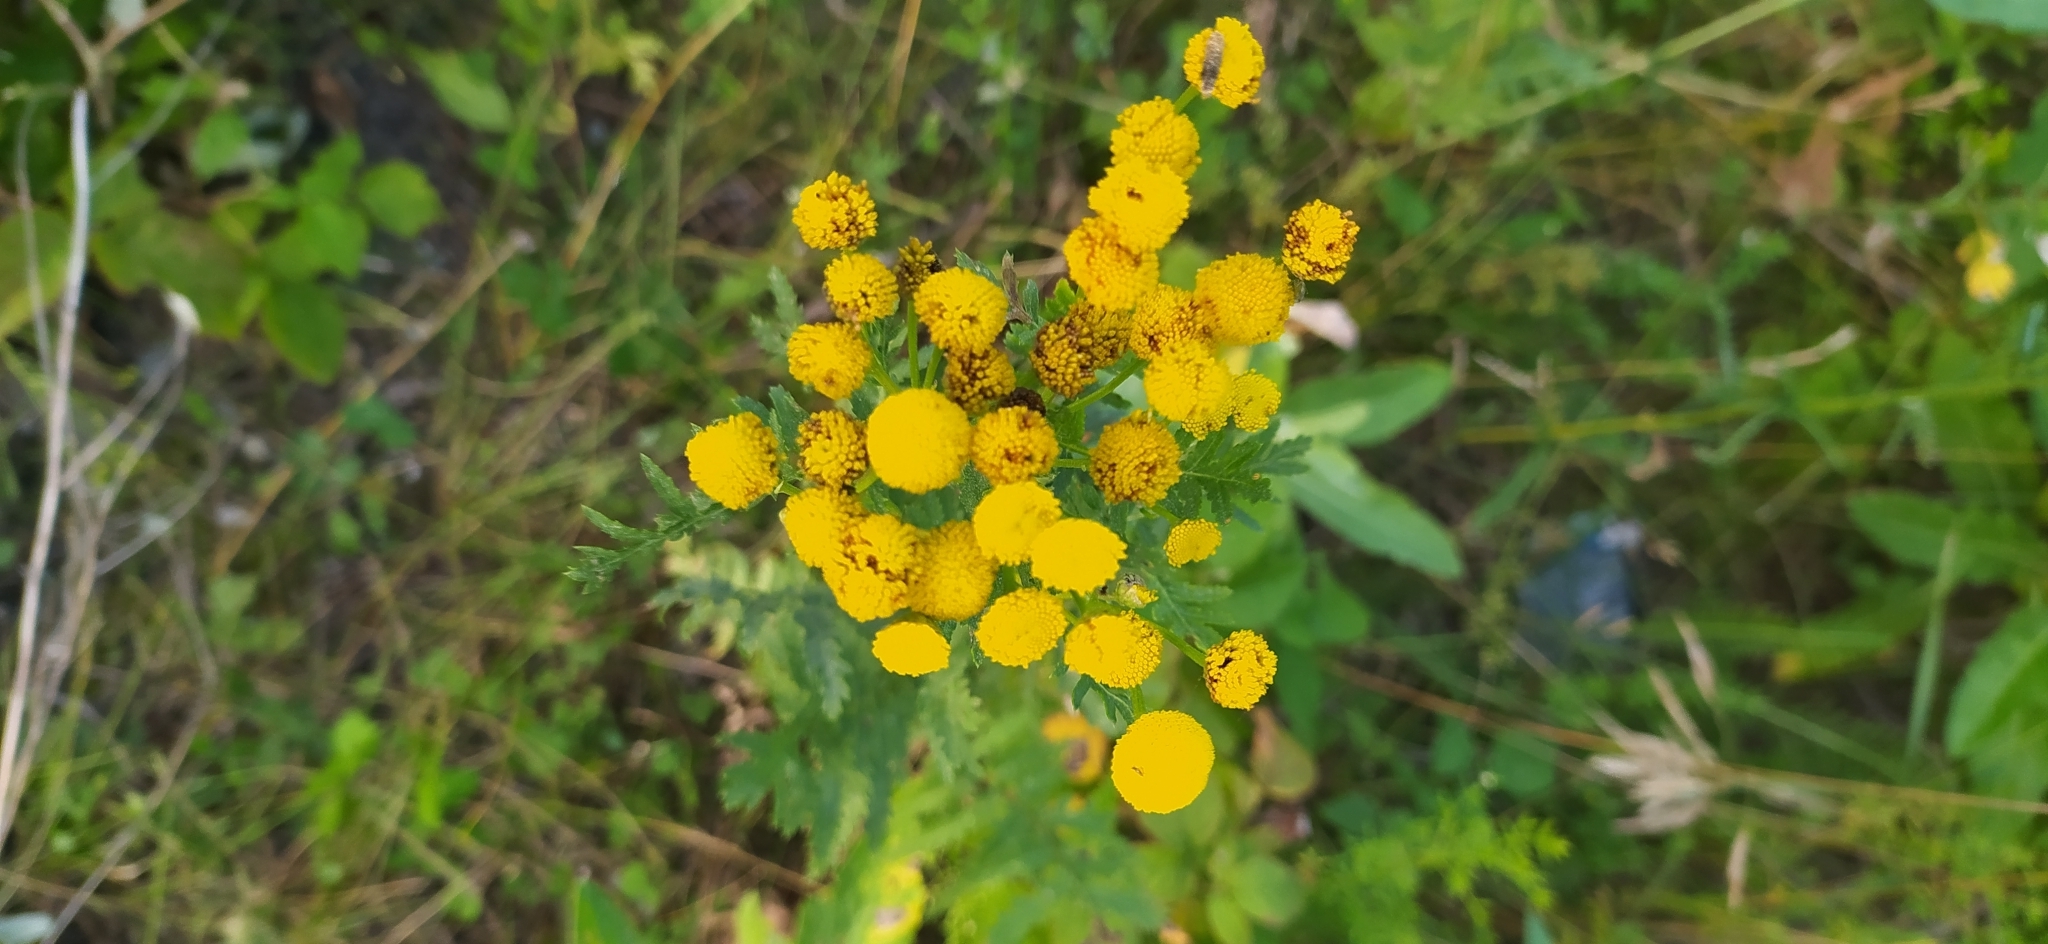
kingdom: Plantae
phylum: Tracheophyta
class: Magnoliopsida
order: Asterales
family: Asteraceae
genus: Tanacetum
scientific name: Tanacetum vulgare
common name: Common tansy
